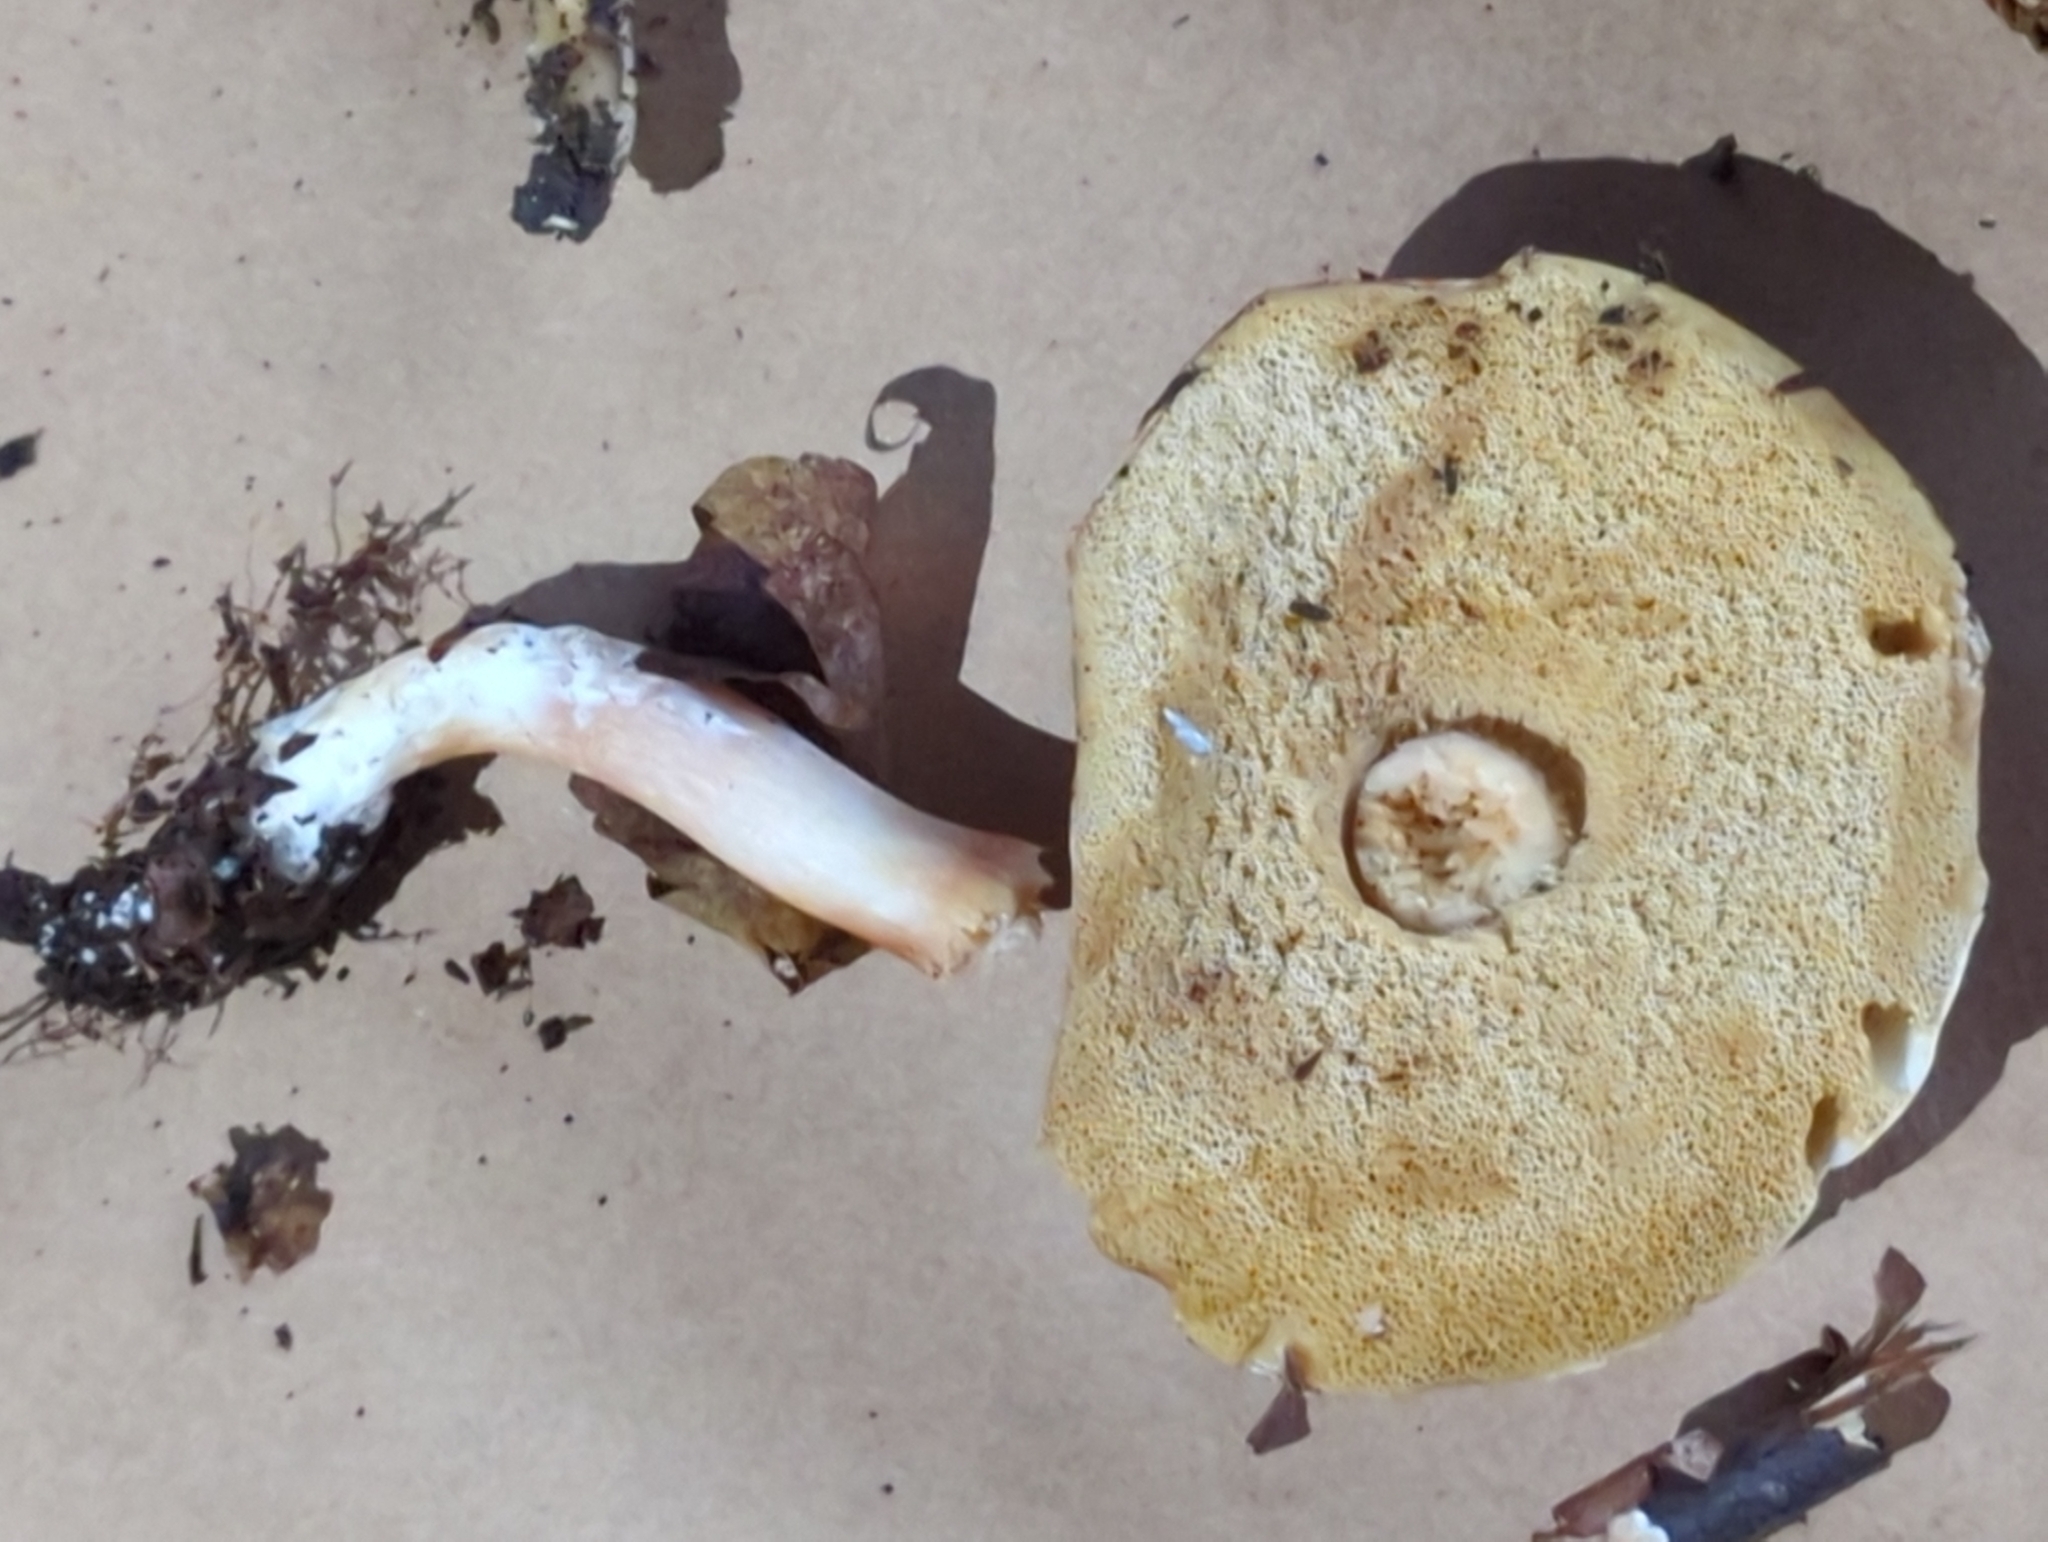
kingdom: Fungi
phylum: Basidiomycota
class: Agaricomycetes
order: Boletales
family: Boletaceae
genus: Xanthoconium
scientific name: Xanthoconium purpureum
